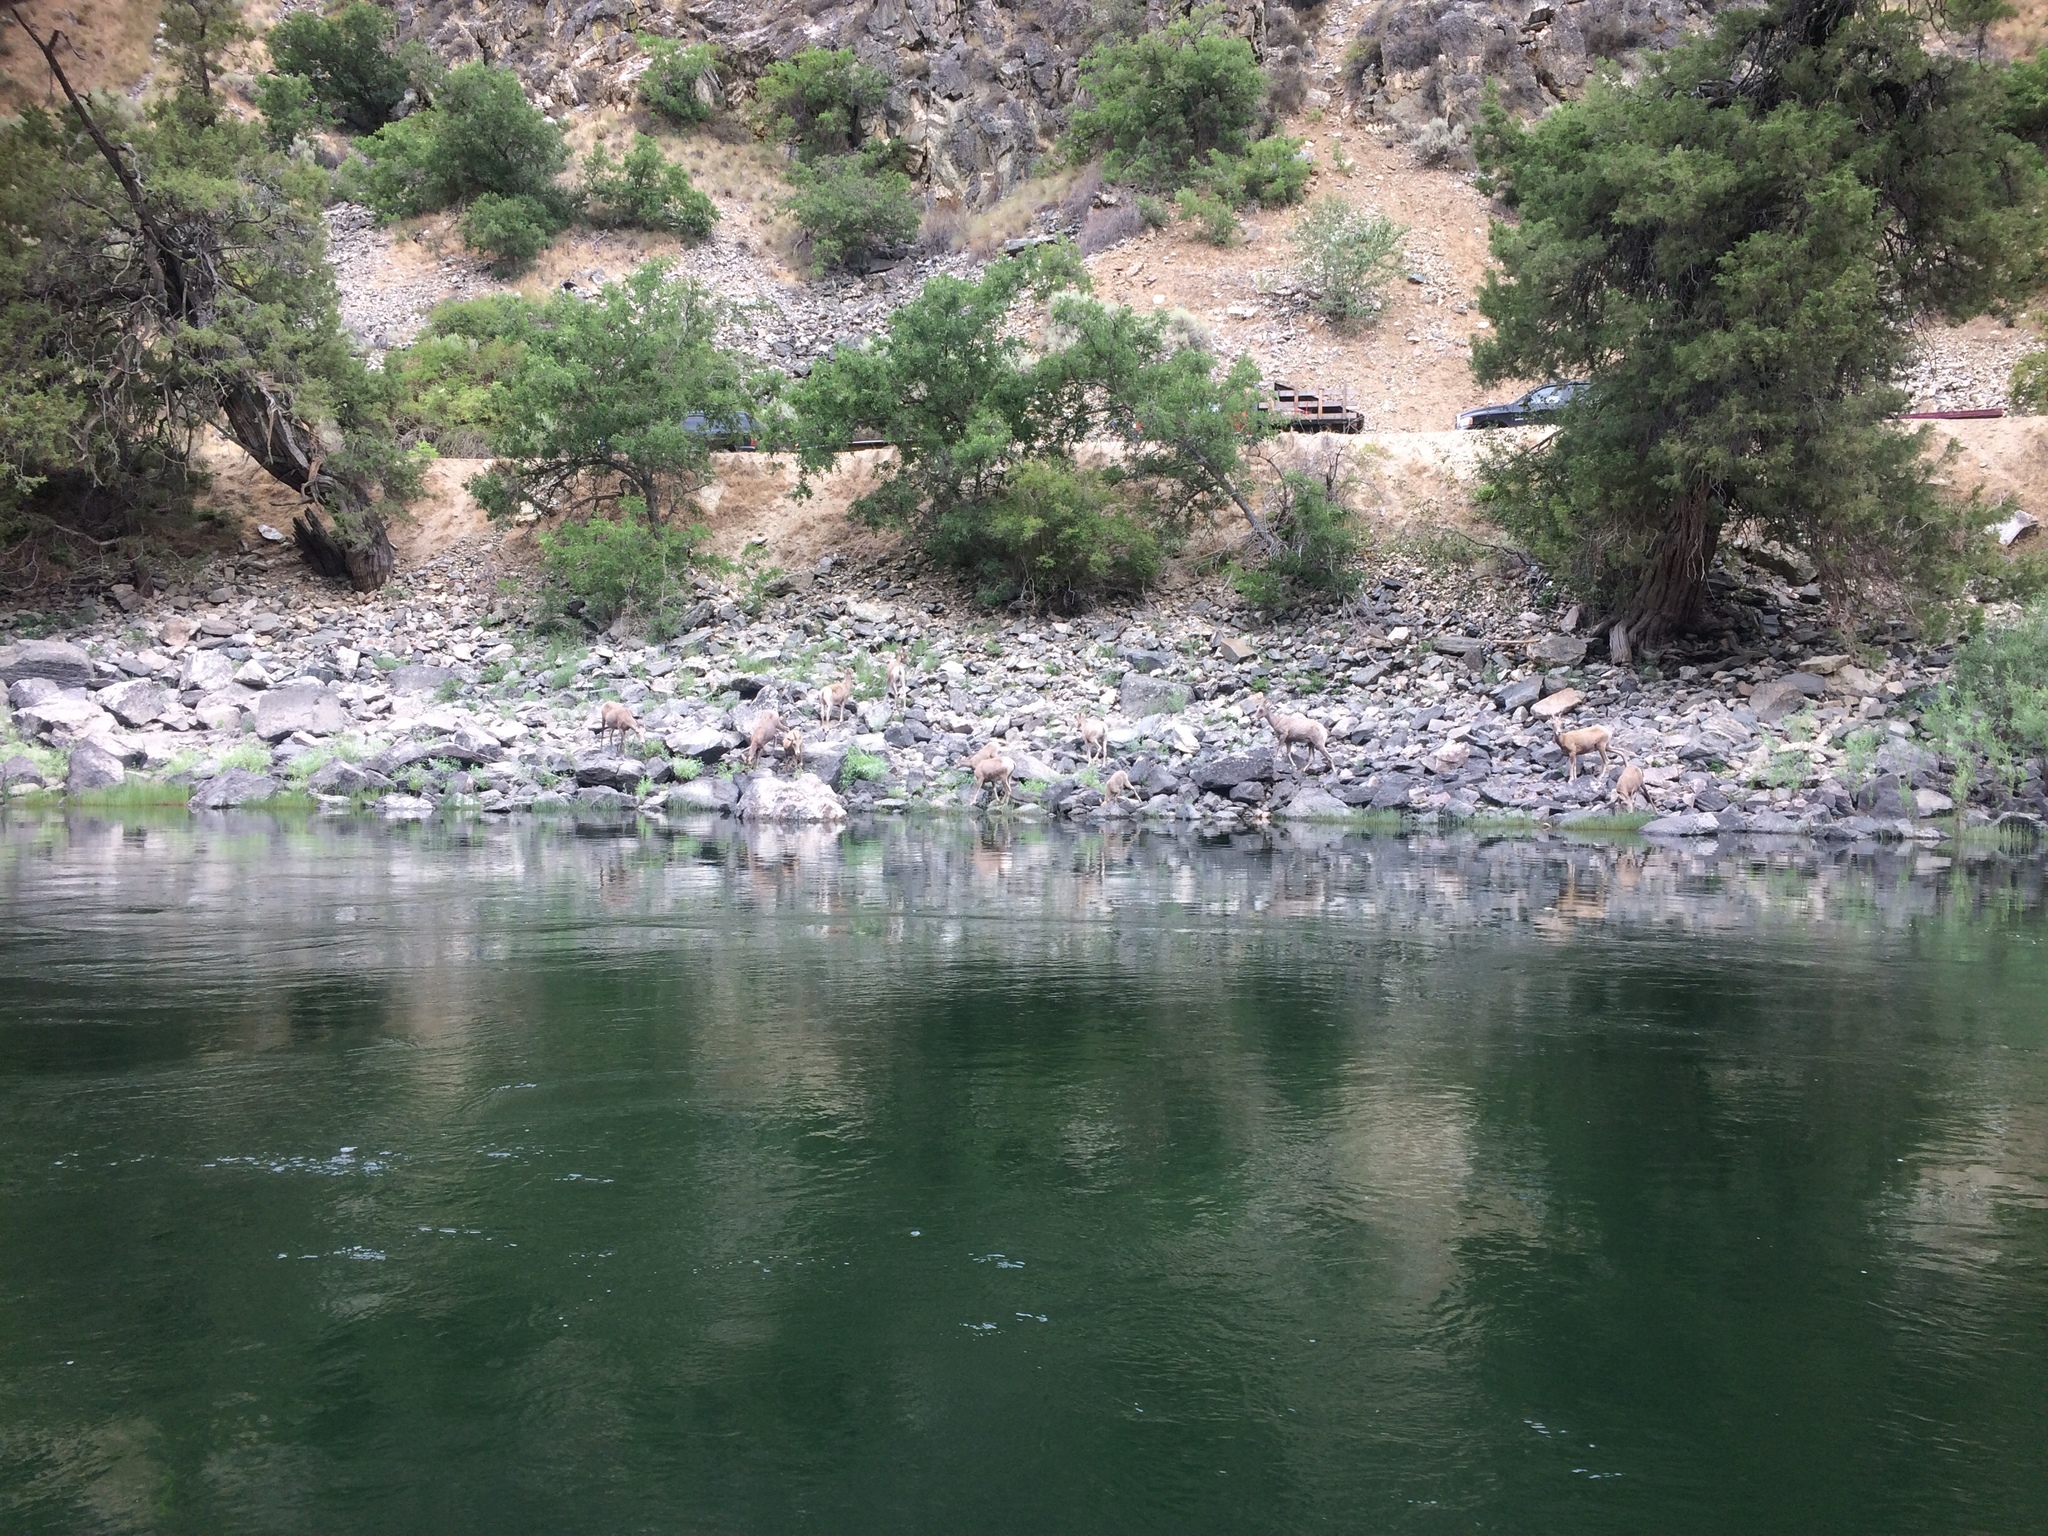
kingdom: Animalia
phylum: Chordata
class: Mammalia
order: Artiodactyla
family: Bovidae
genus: Ovis
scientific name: Ovis canadensis
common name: Bighorn sheep
